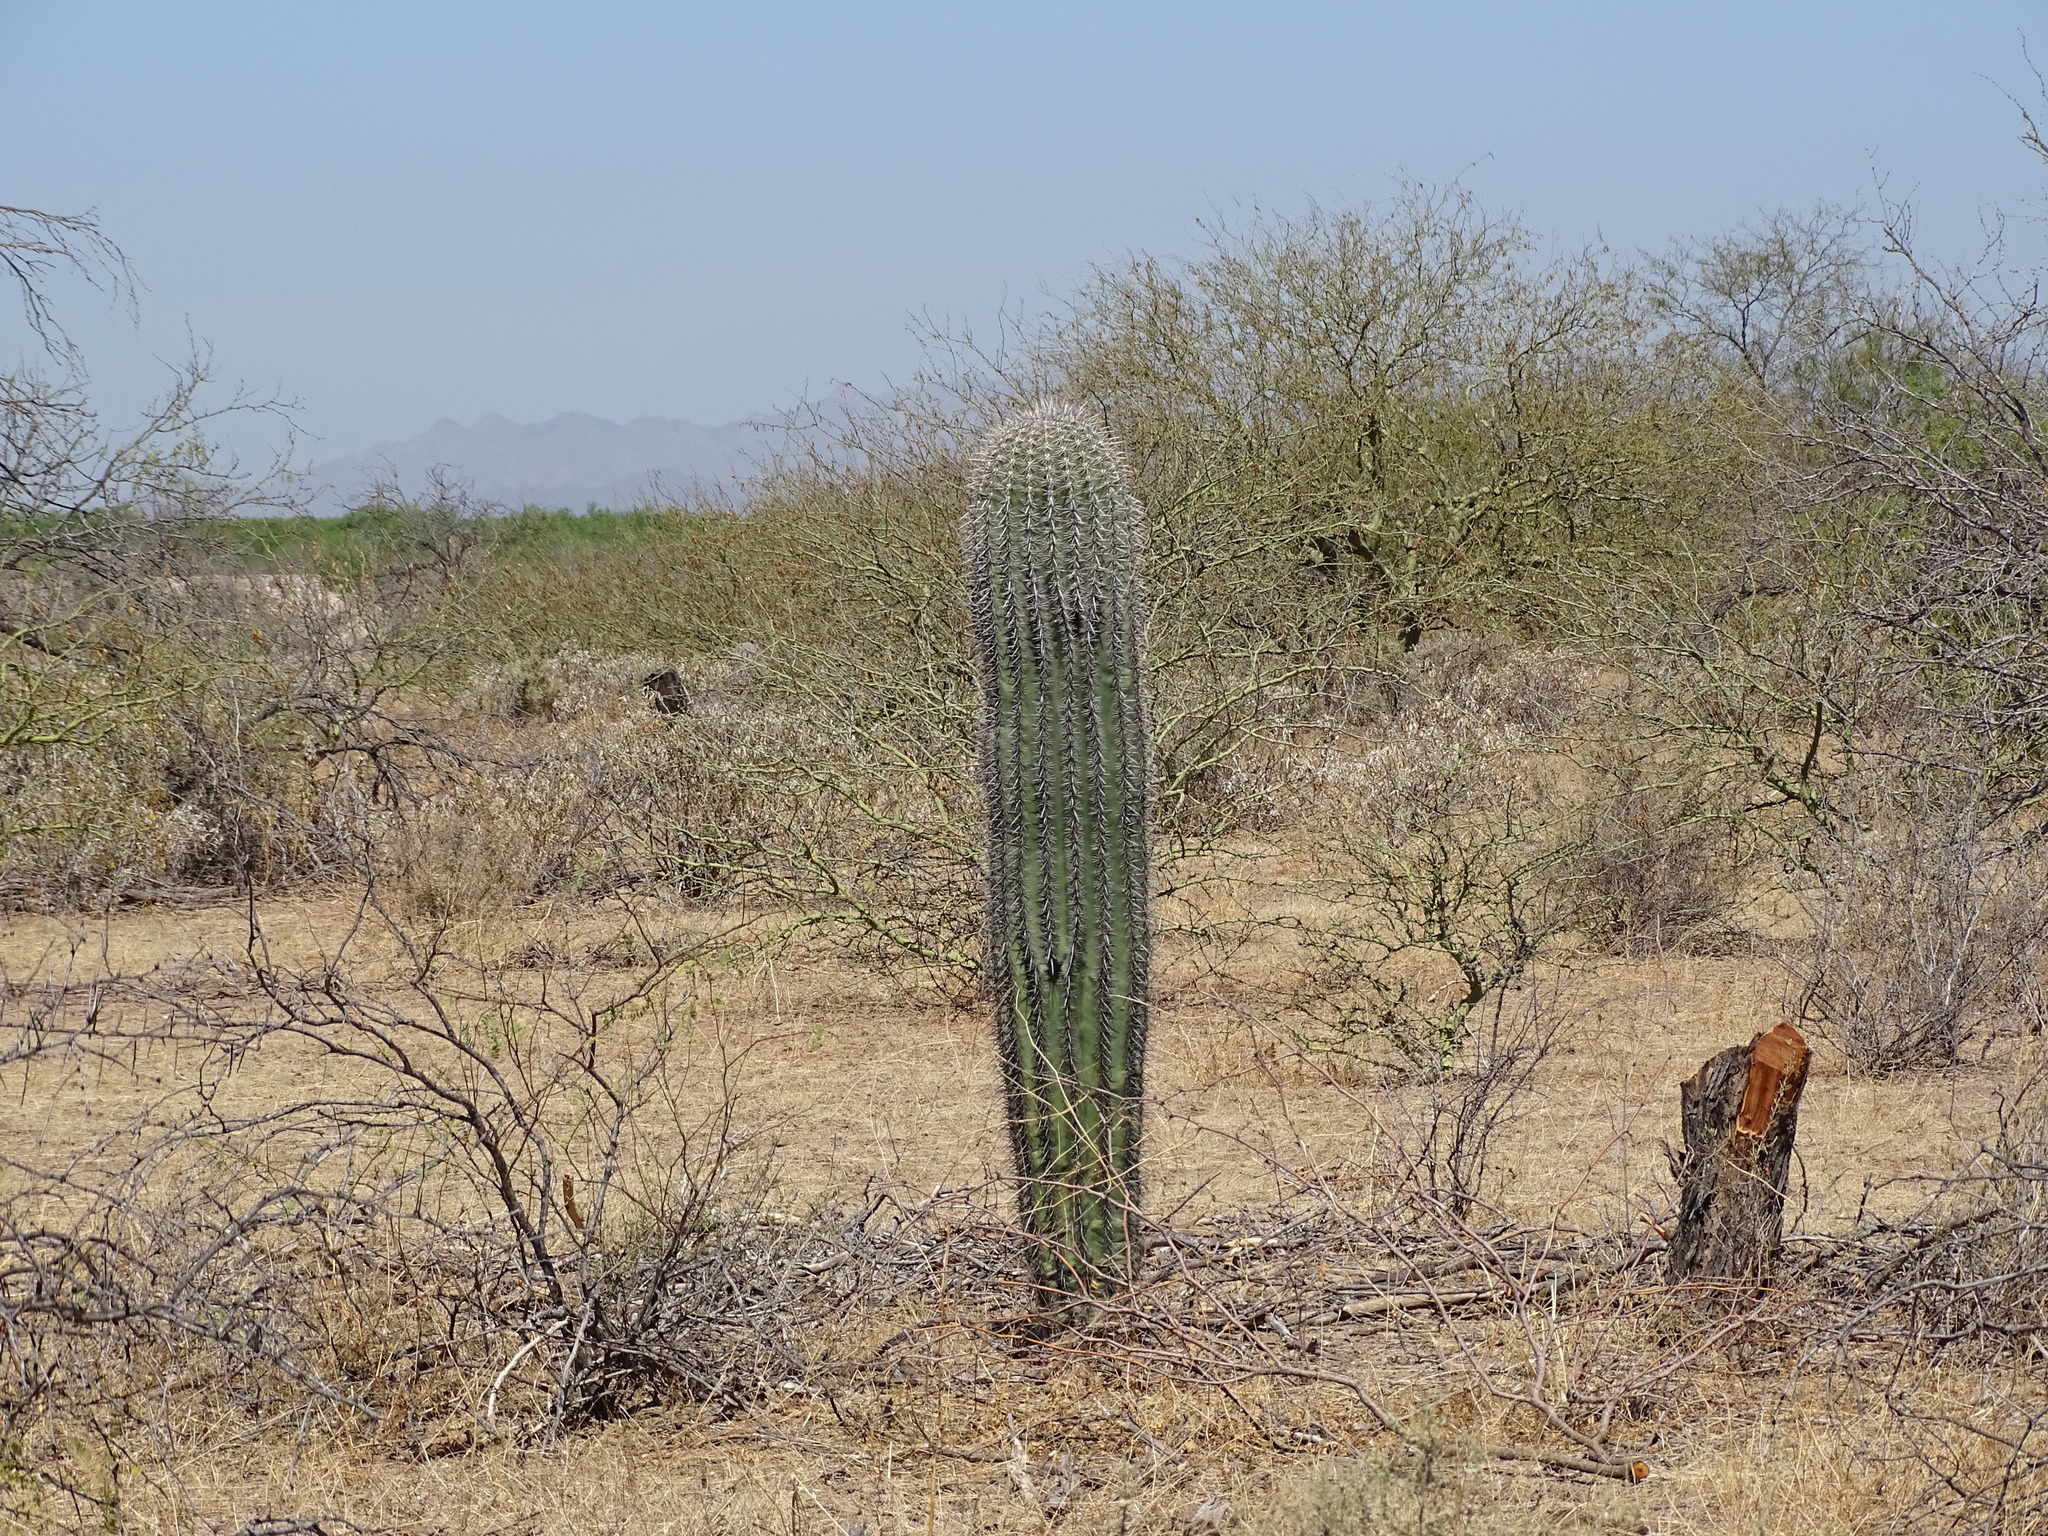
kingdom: Plantae
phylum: Tracheophyta
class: Magnoliopsida
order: Caryophyllales
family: Cactaceae
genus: Carnegiea
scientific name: Carnegiea gigantea
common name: Saguaro
